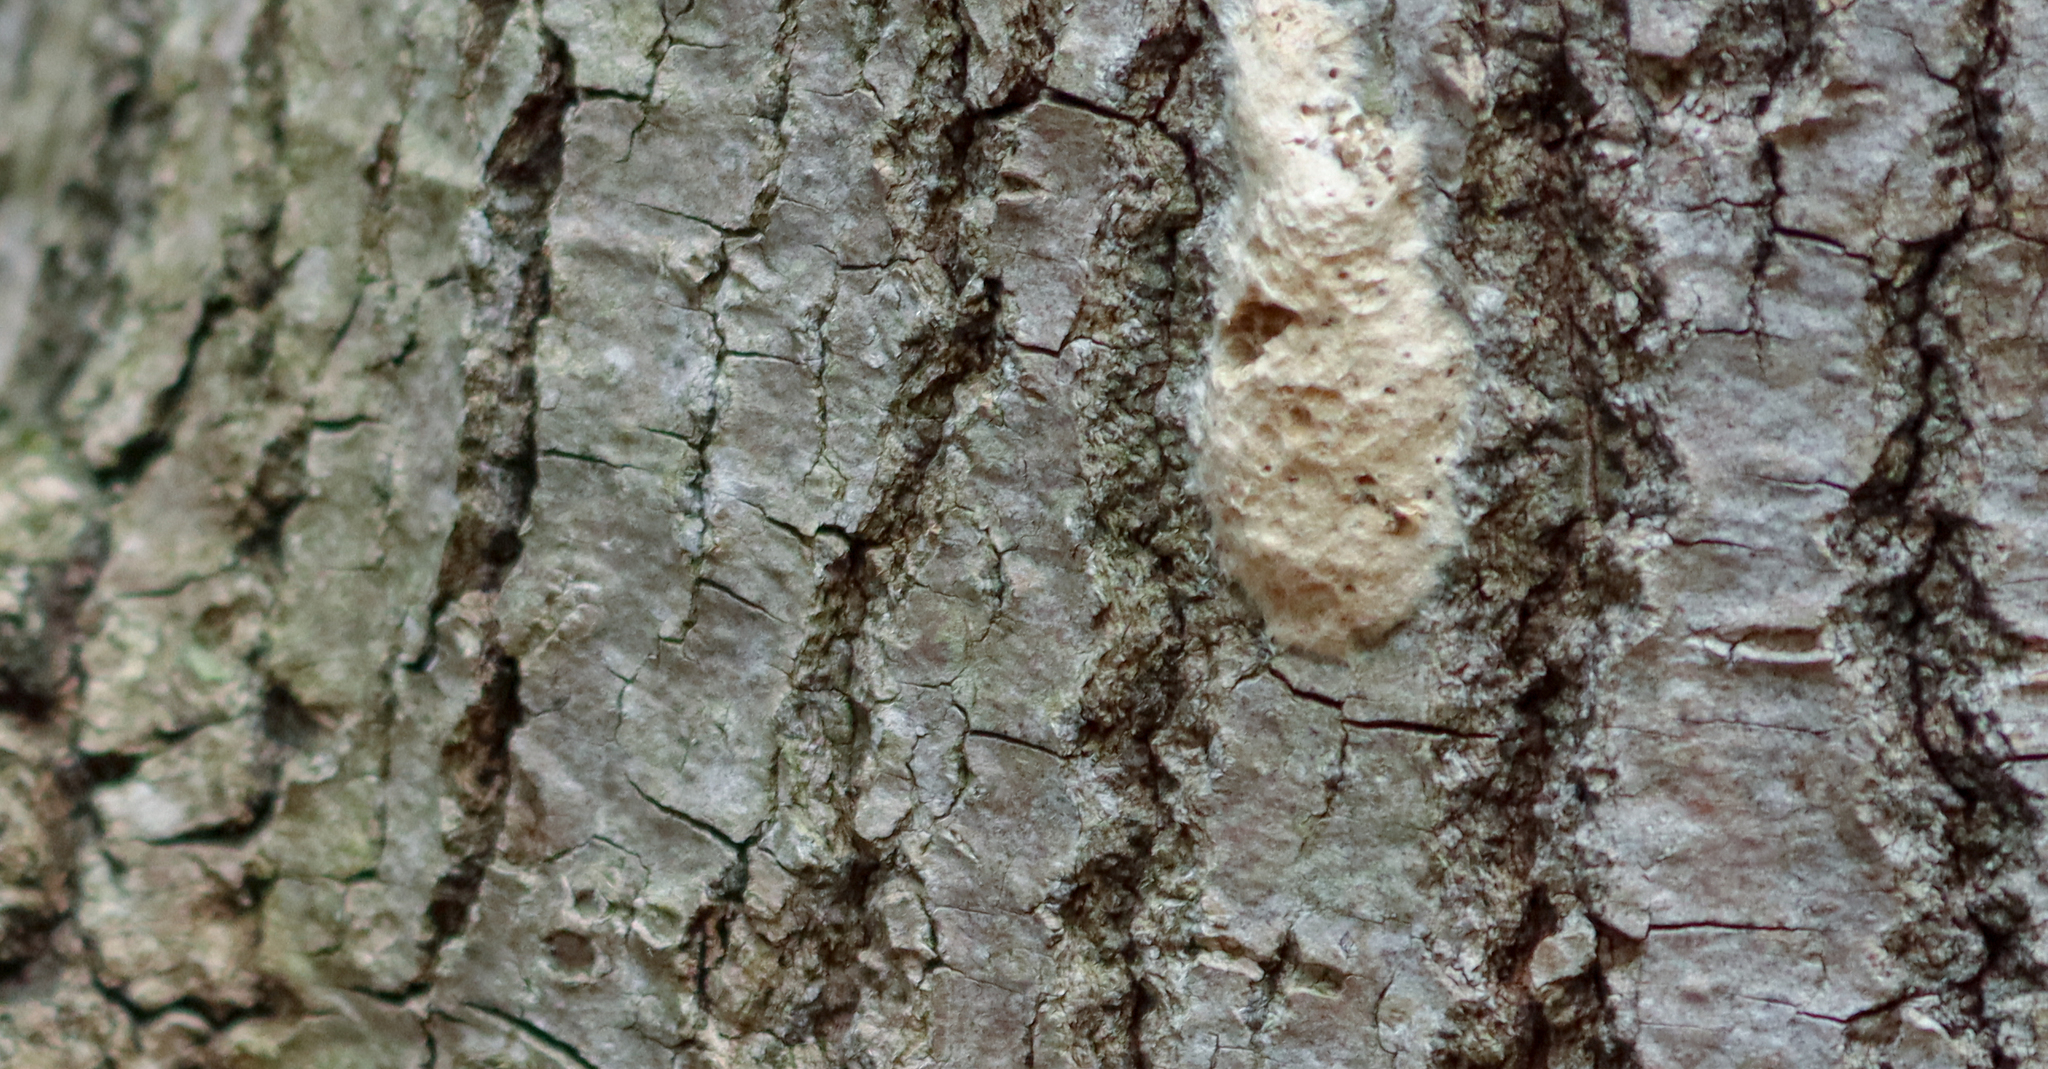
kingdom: Animalia
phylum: Arthropoda
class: Insecta
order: Lepidoptera
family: Erebidae
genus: Lymantria
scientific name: Lymantria dispar
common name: Gypsy moth
